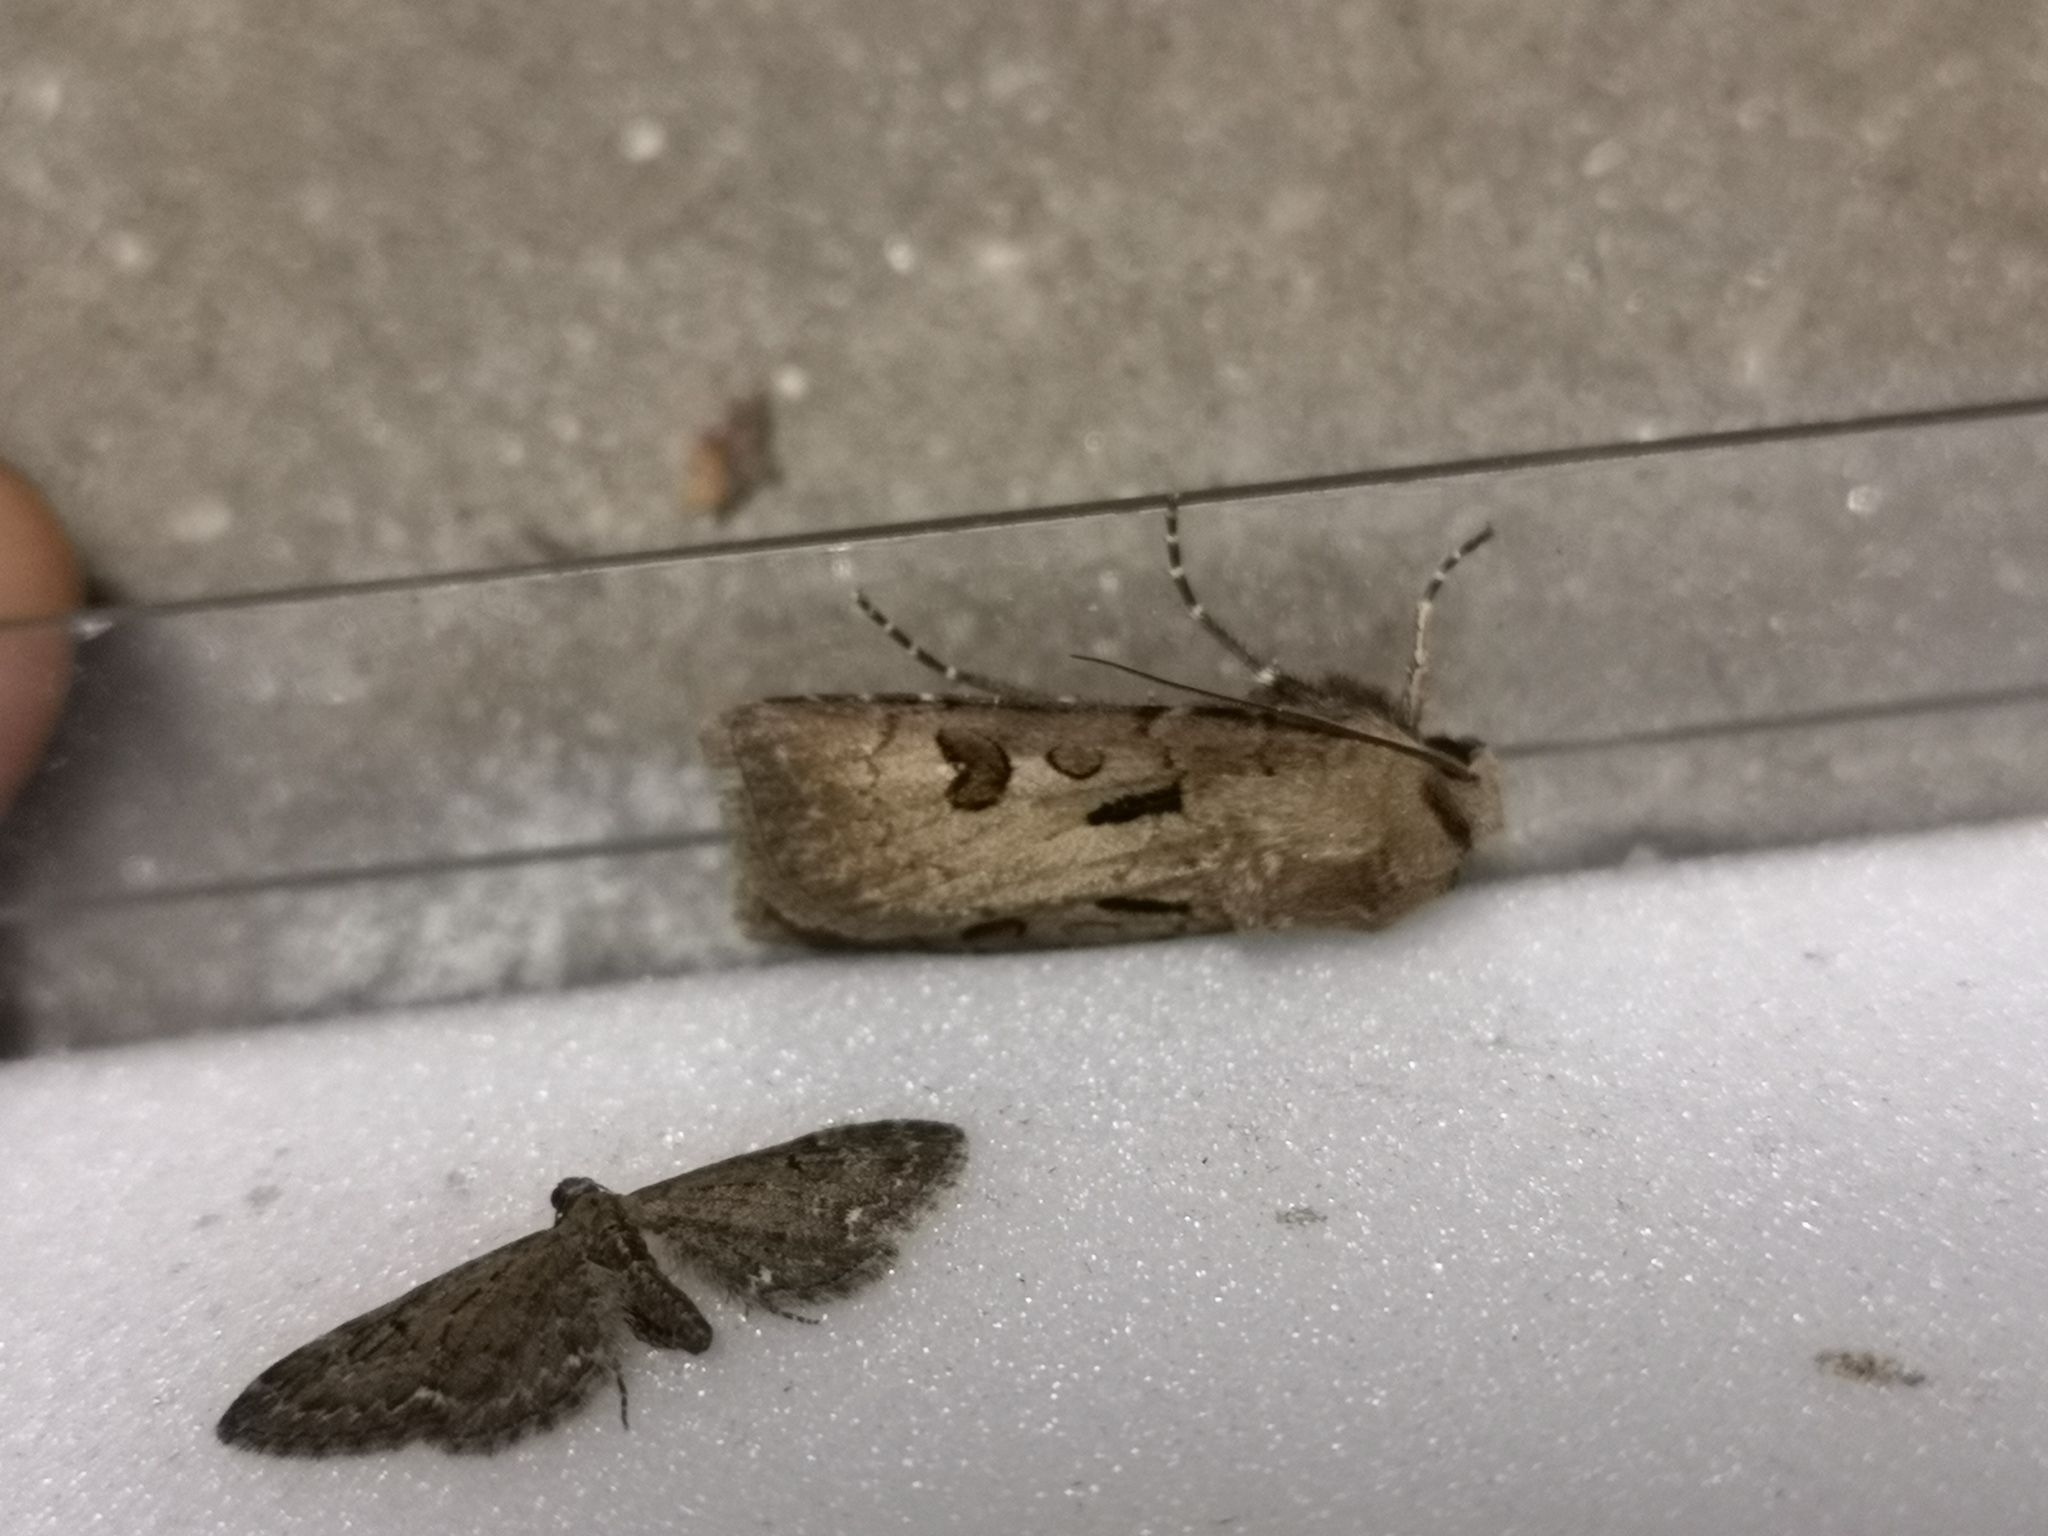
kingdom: Animalia
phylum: Arthropoda
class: Insecta
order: Lepidoptera
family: Noctuidae
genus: Agrotis
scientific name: Agrotis exclamationis
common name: Heart and dart
